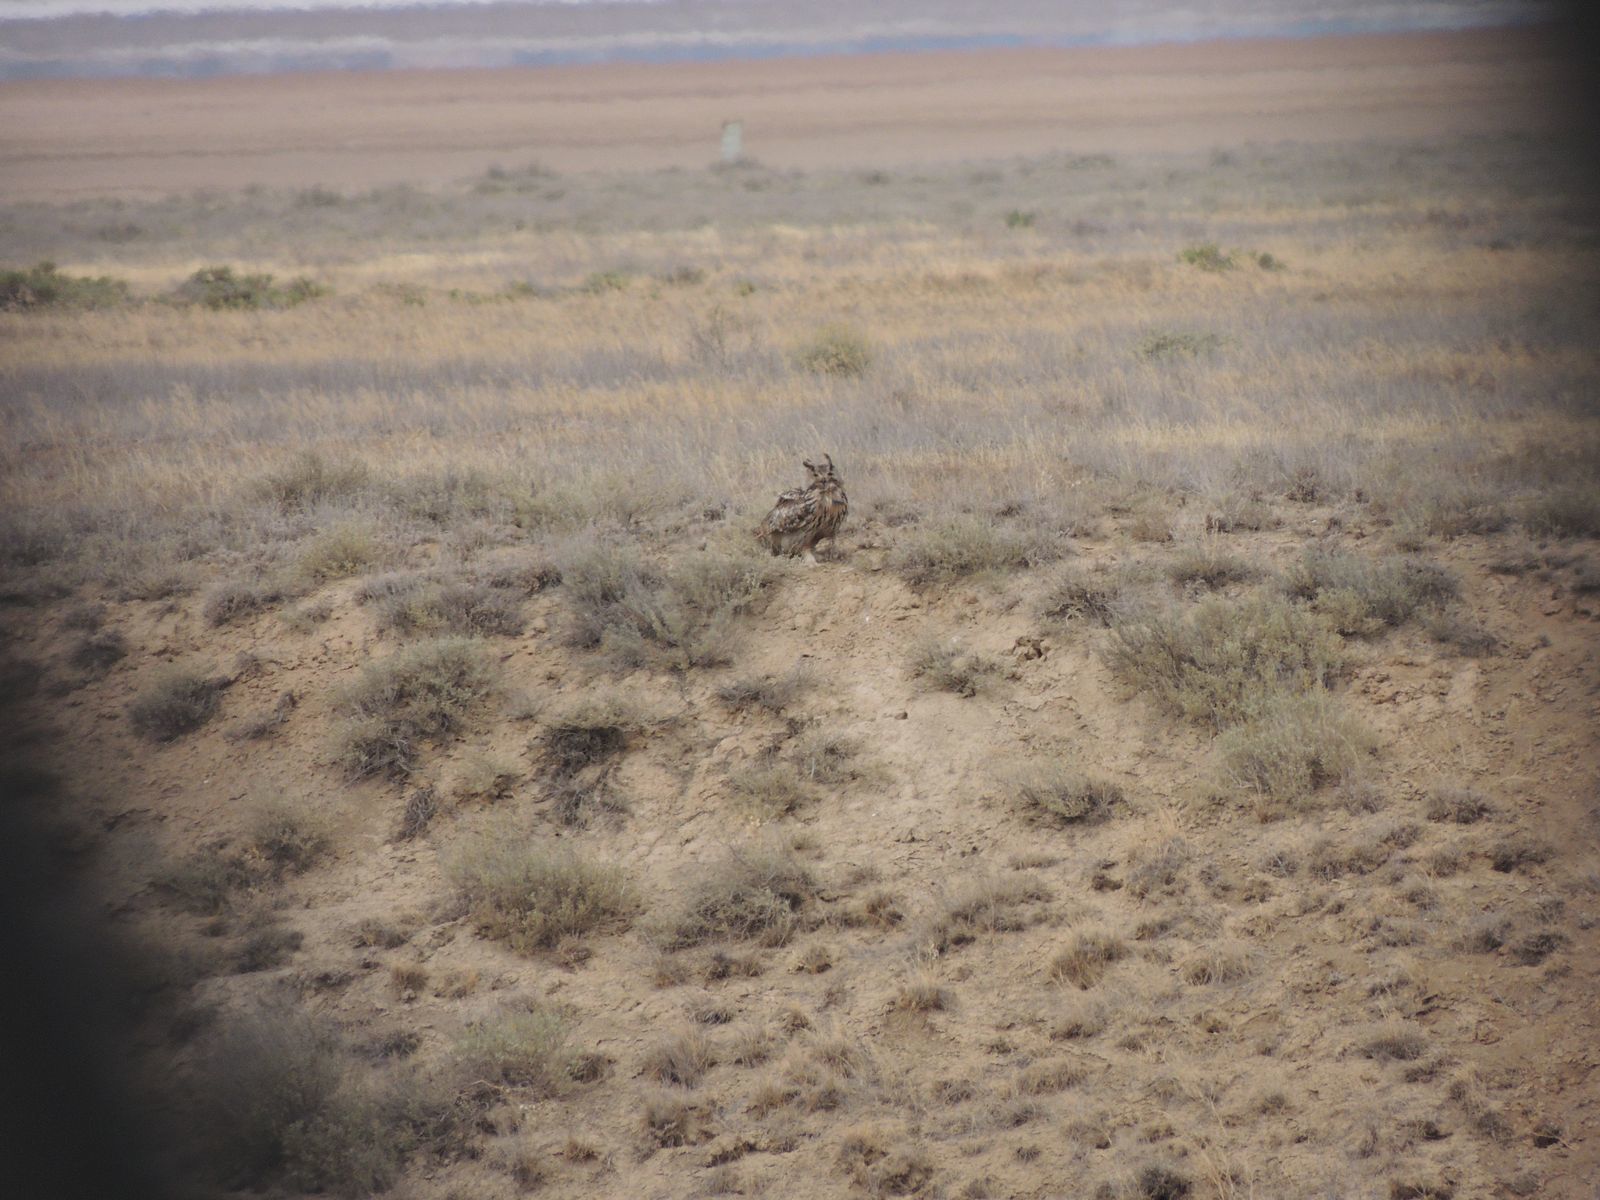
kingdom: Animalia
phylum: Chordata
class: Aves
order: Strigiformes
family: Strigidae
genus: Bubo
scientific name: Bubo bubo
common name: Eurasian eagle-owl
